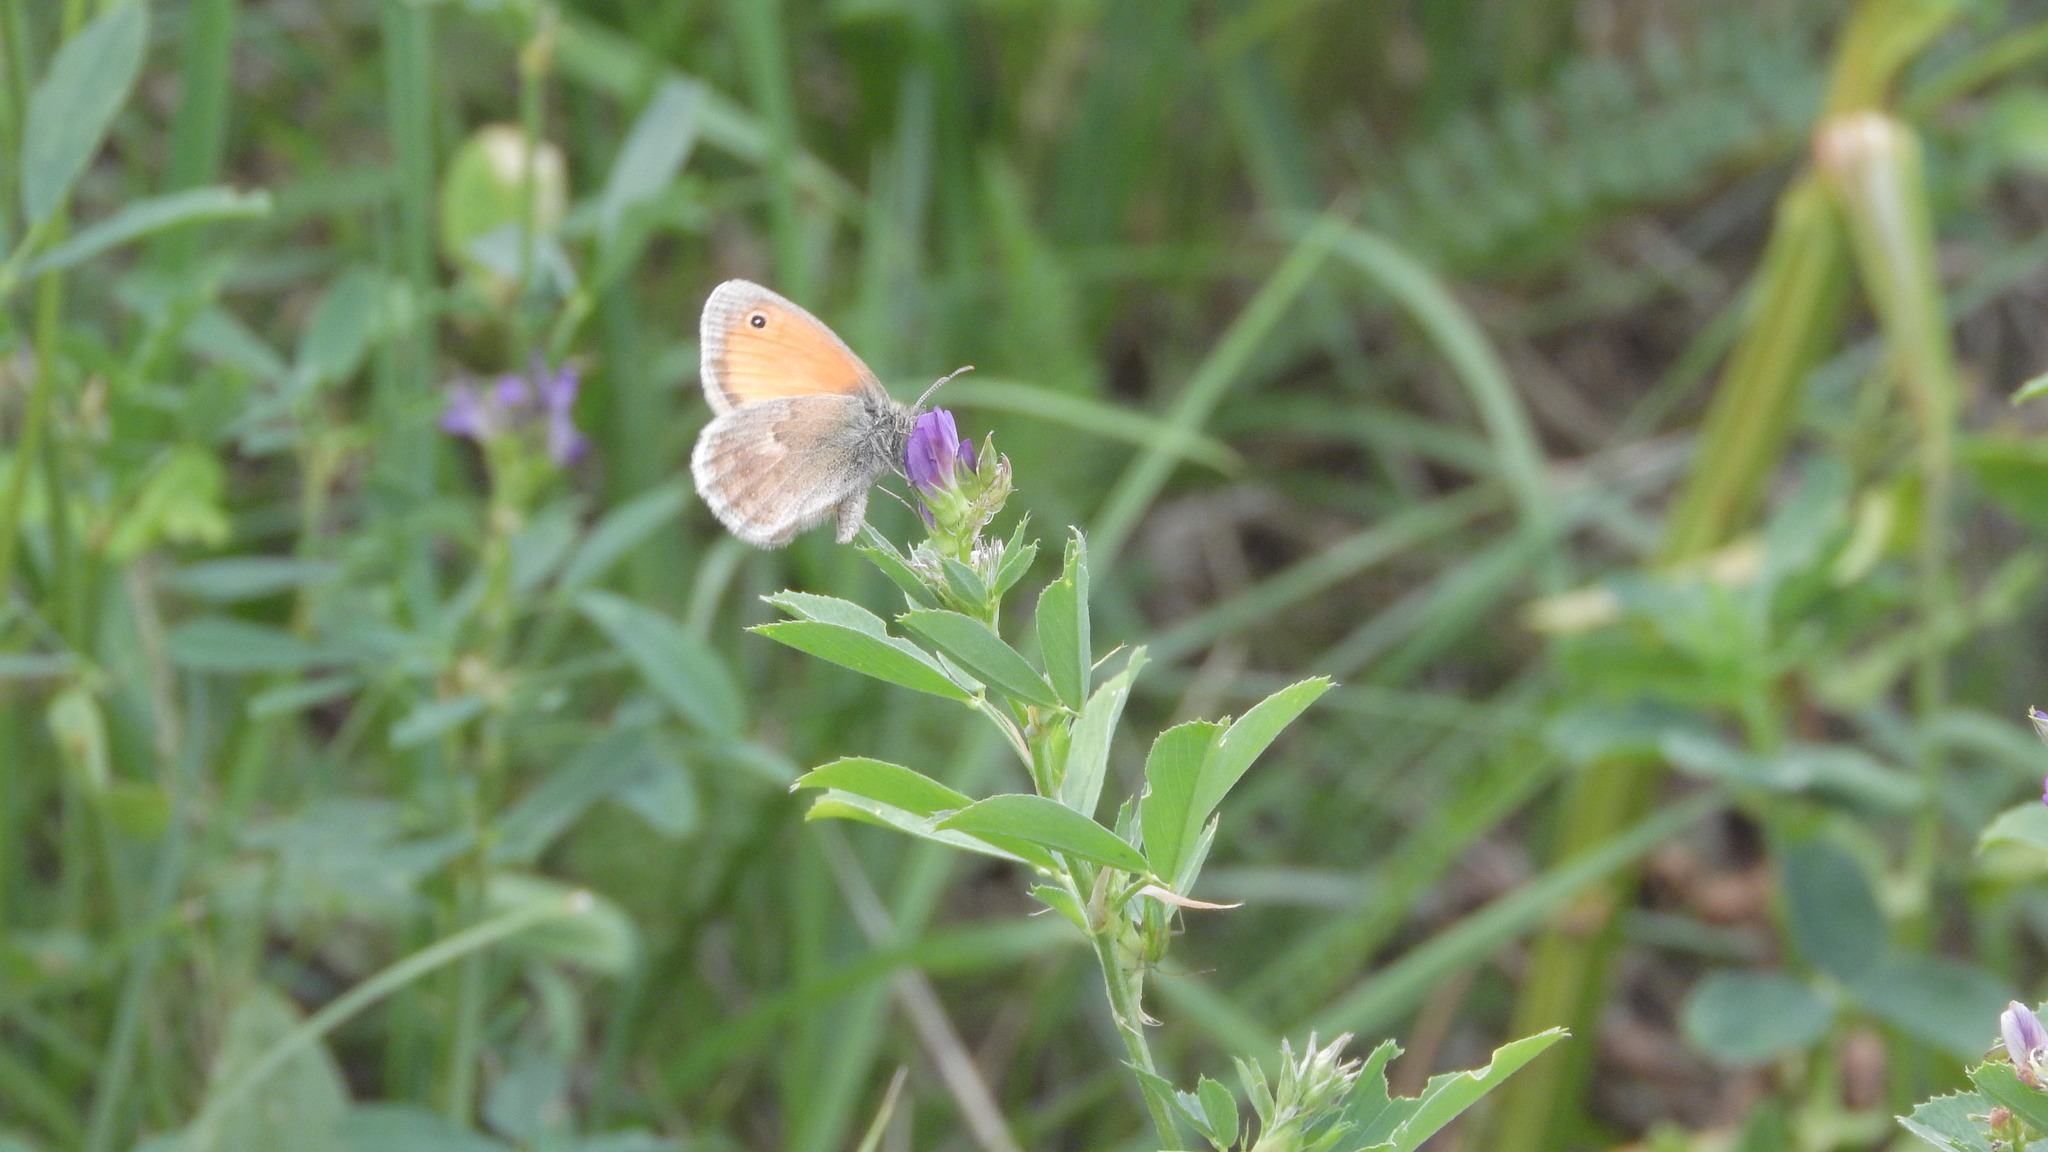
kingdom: Animalia
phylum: Arthropoda
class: Insecta
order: Lepidoptera
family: Nymphalidae
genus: Coenonympha
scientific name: Coenonympha pamphilus
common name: Small heath
